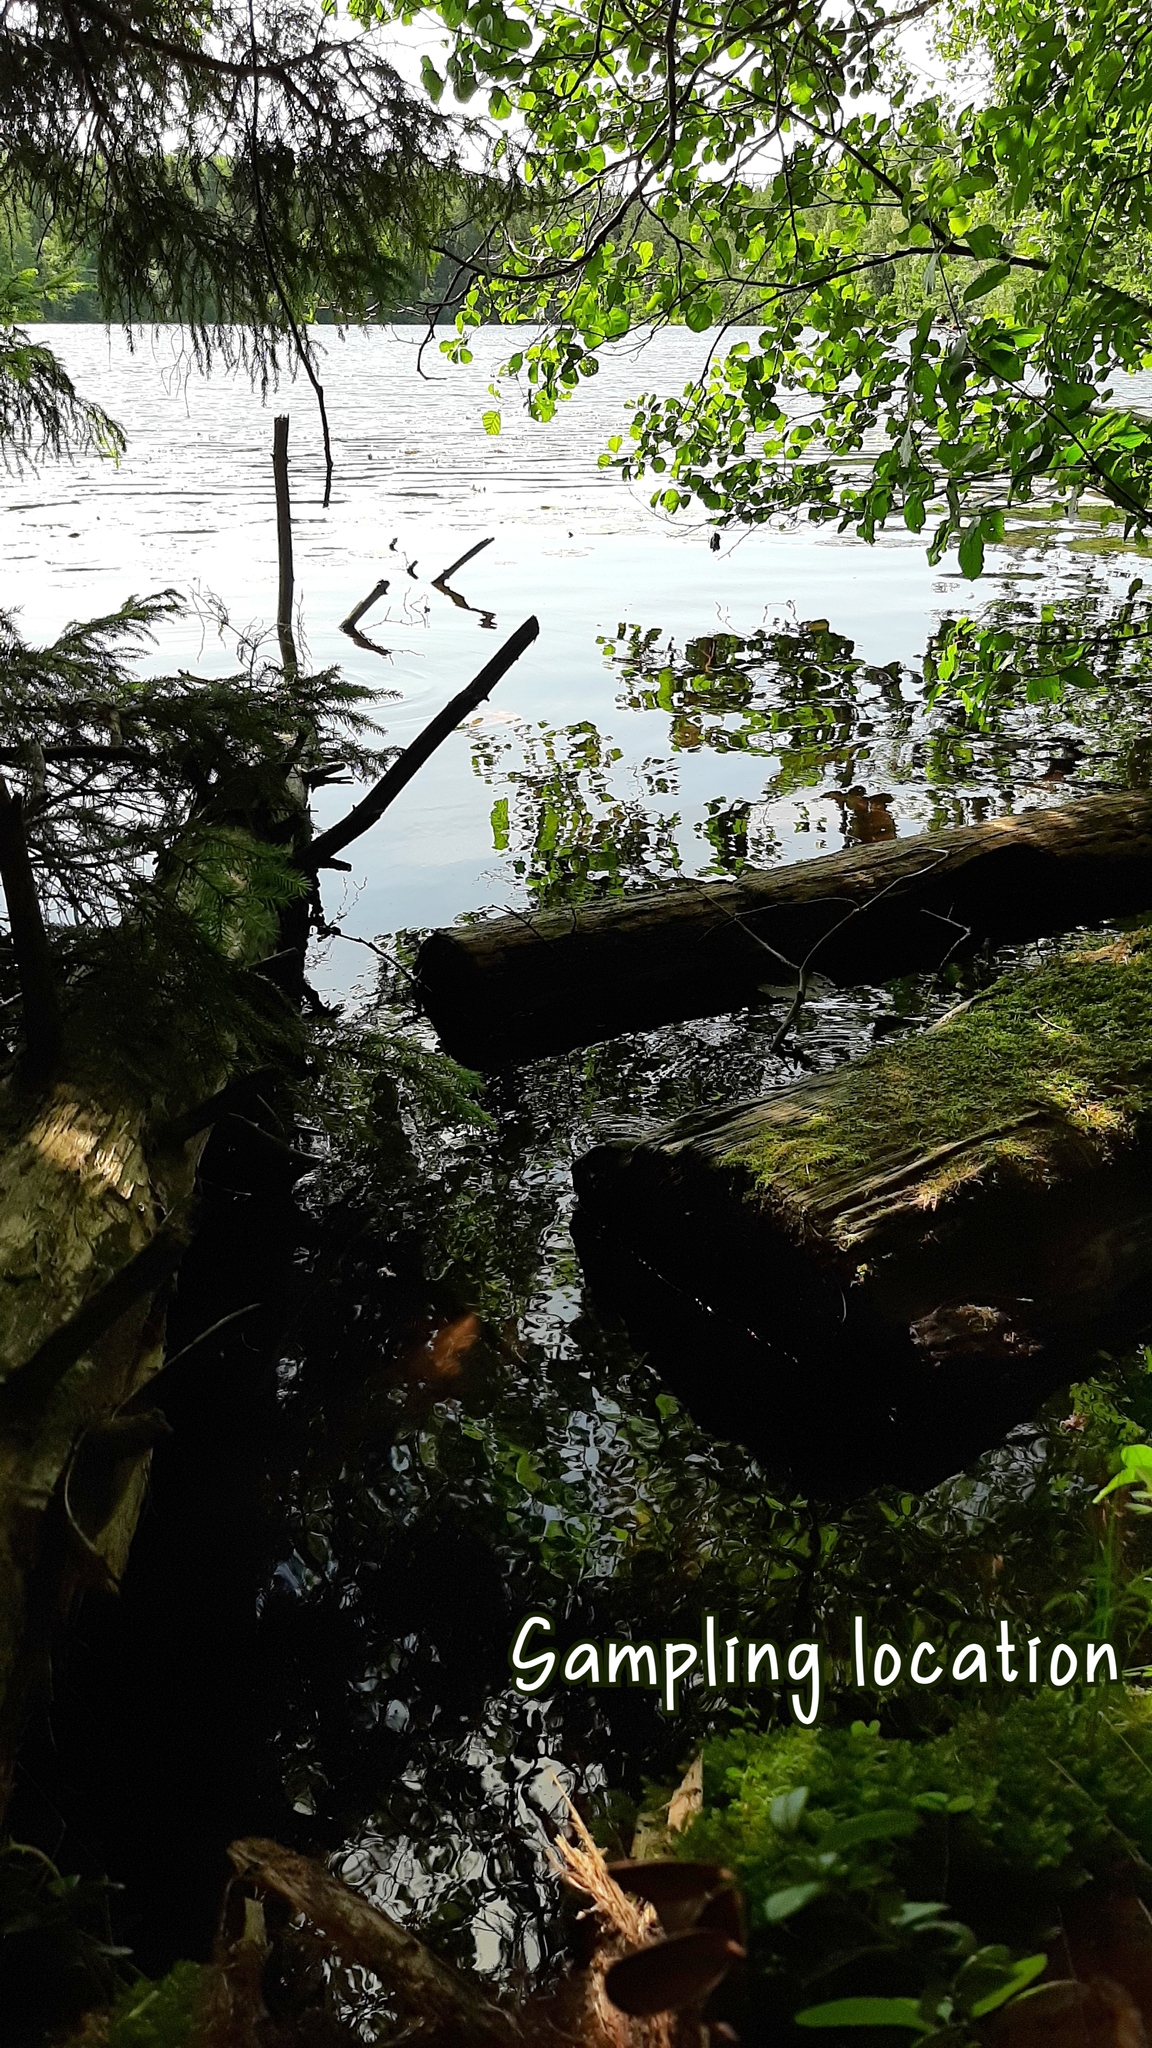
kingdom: Animalia
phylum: Rotifera
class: Eurotatoria
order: Ploima
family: Euchlanidae
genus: Euchlanis
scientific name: Euchlanis triquetra
